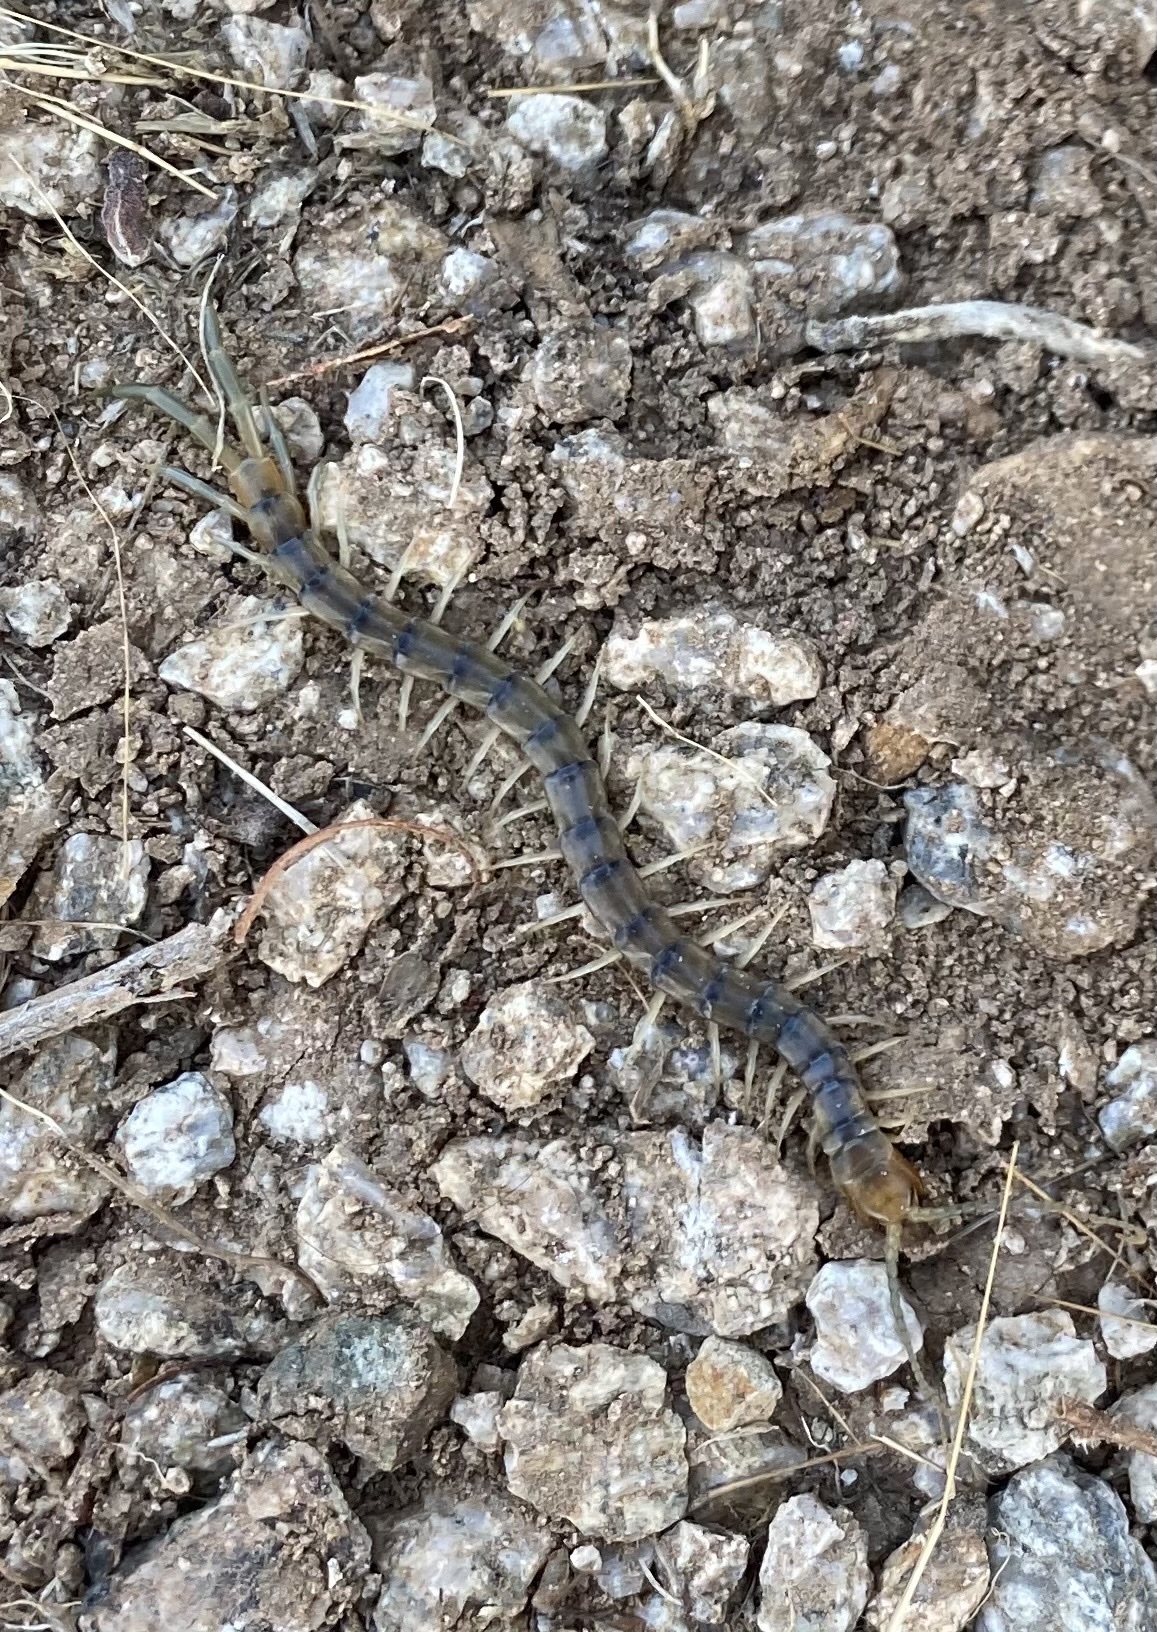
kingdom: Animalia
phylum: Arthropoda
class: Chilopoda
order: Scolopendromorpha
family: Scolopendridae
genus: Scolopendra
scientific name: Scolopendra polymorpha
